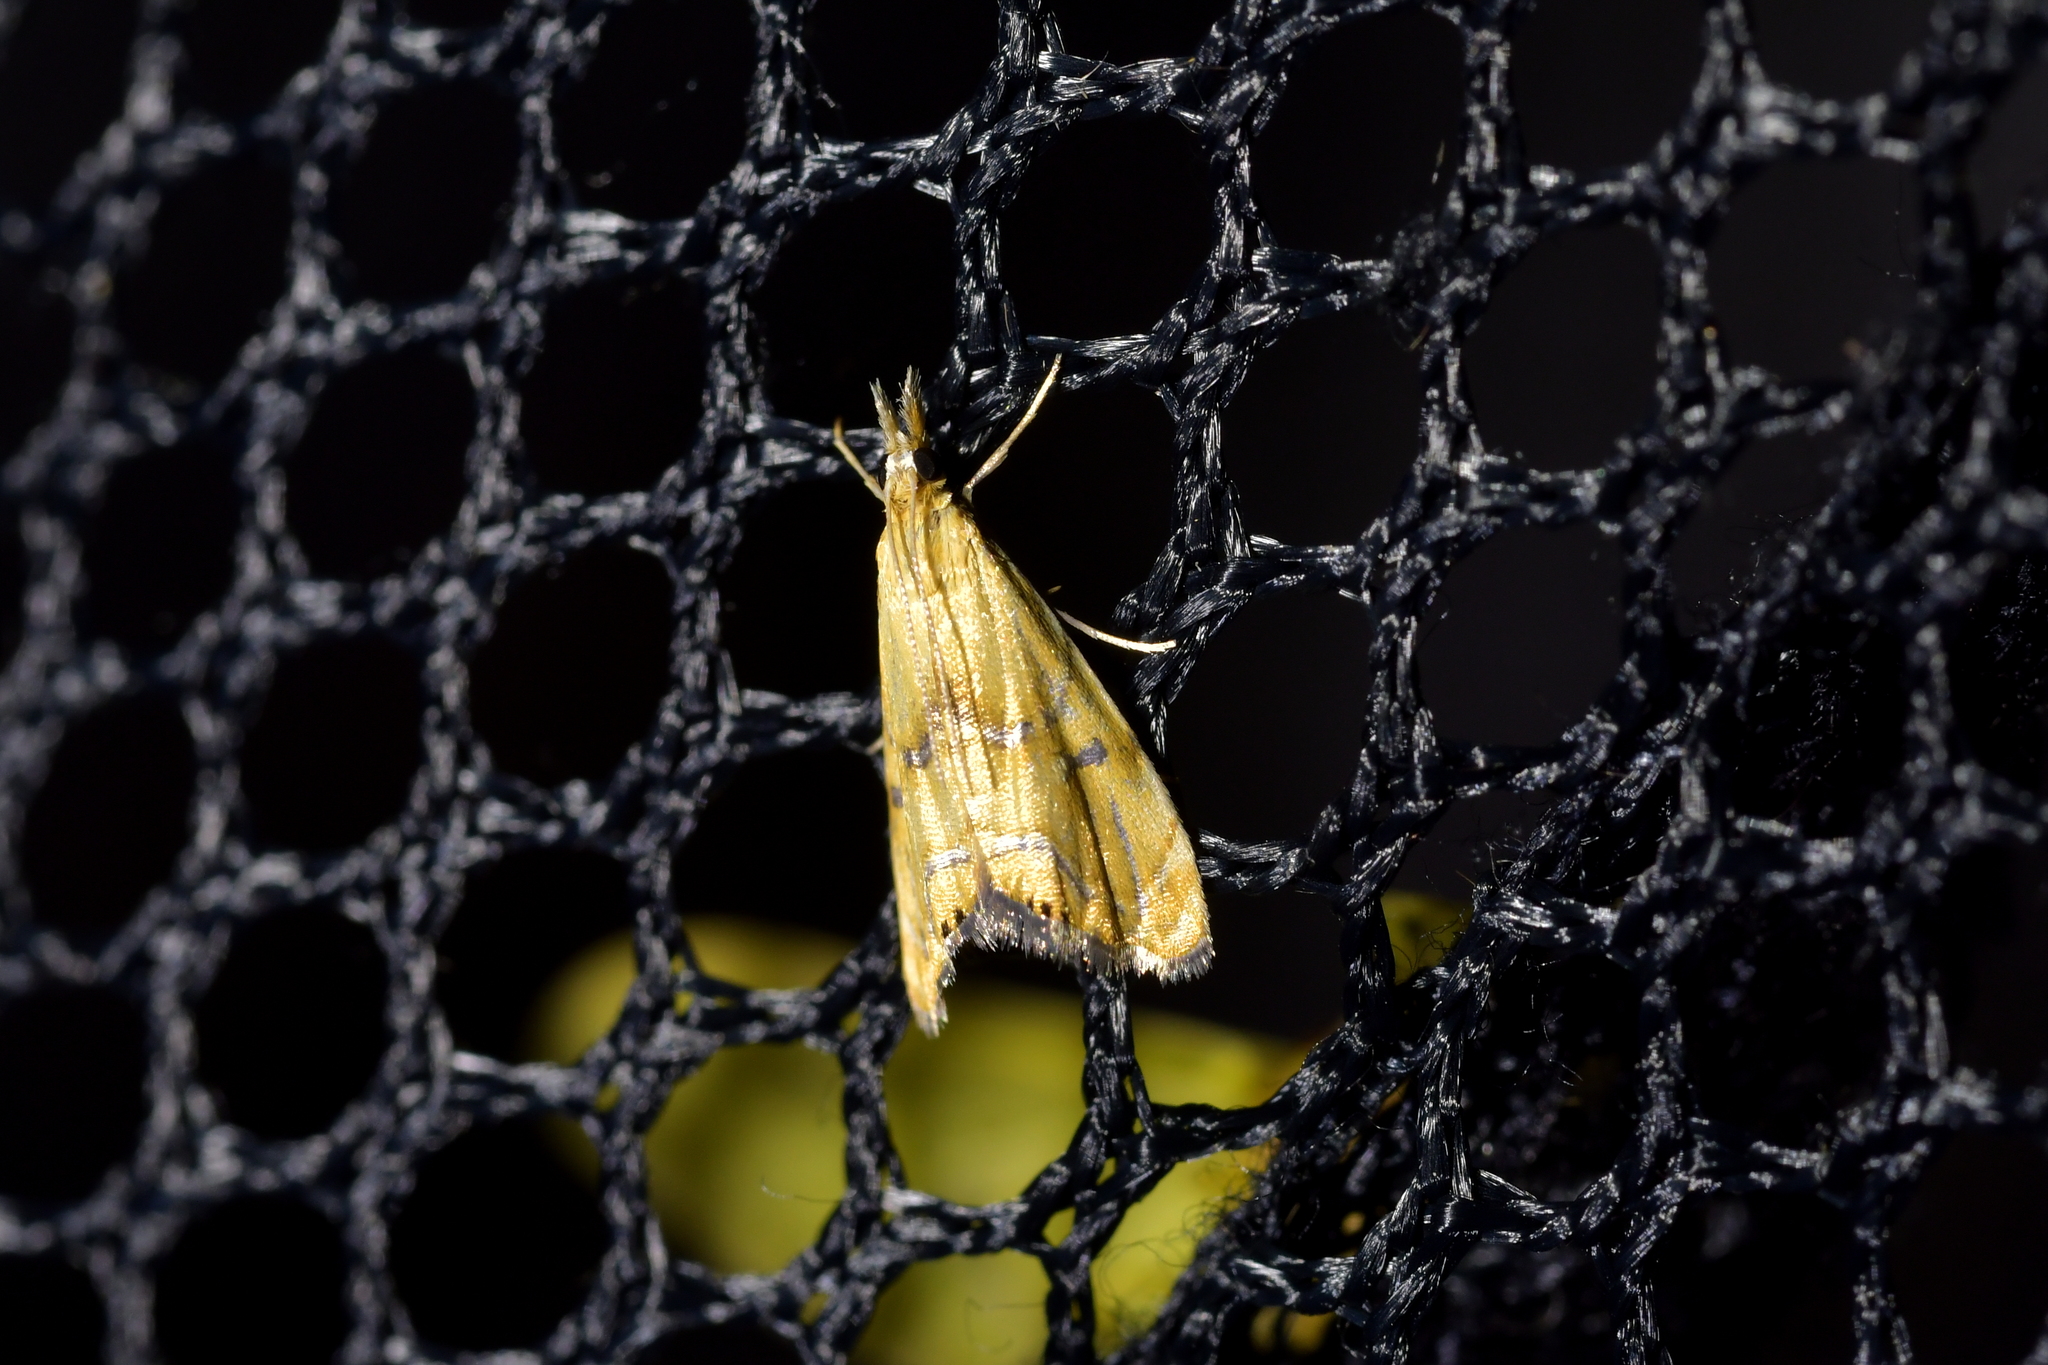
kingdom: Animalia
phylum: Arthropoda
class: Insecta
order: Lepidoptera
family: Crambidae
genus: Glaucocharis
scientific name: Glaucocharis auriscriptella
